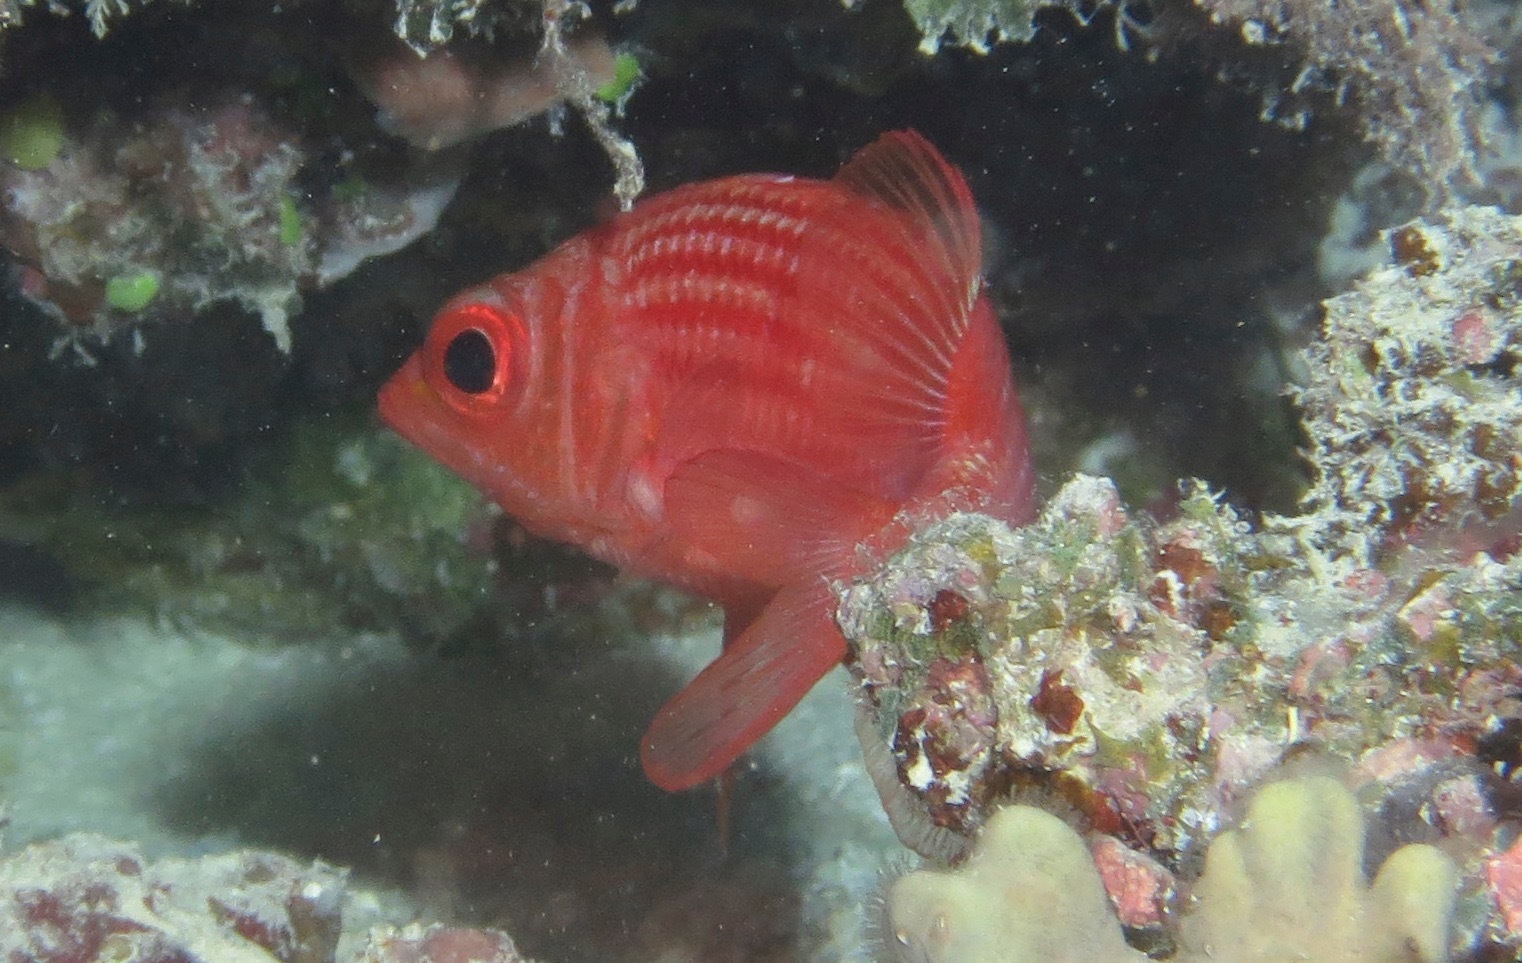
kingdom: Animalia
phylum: Chordata
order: Beryciformes
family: Holocentridae
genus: Sargocentron
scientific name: Sargocentron tiereoides
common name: Pink squirrelfish
